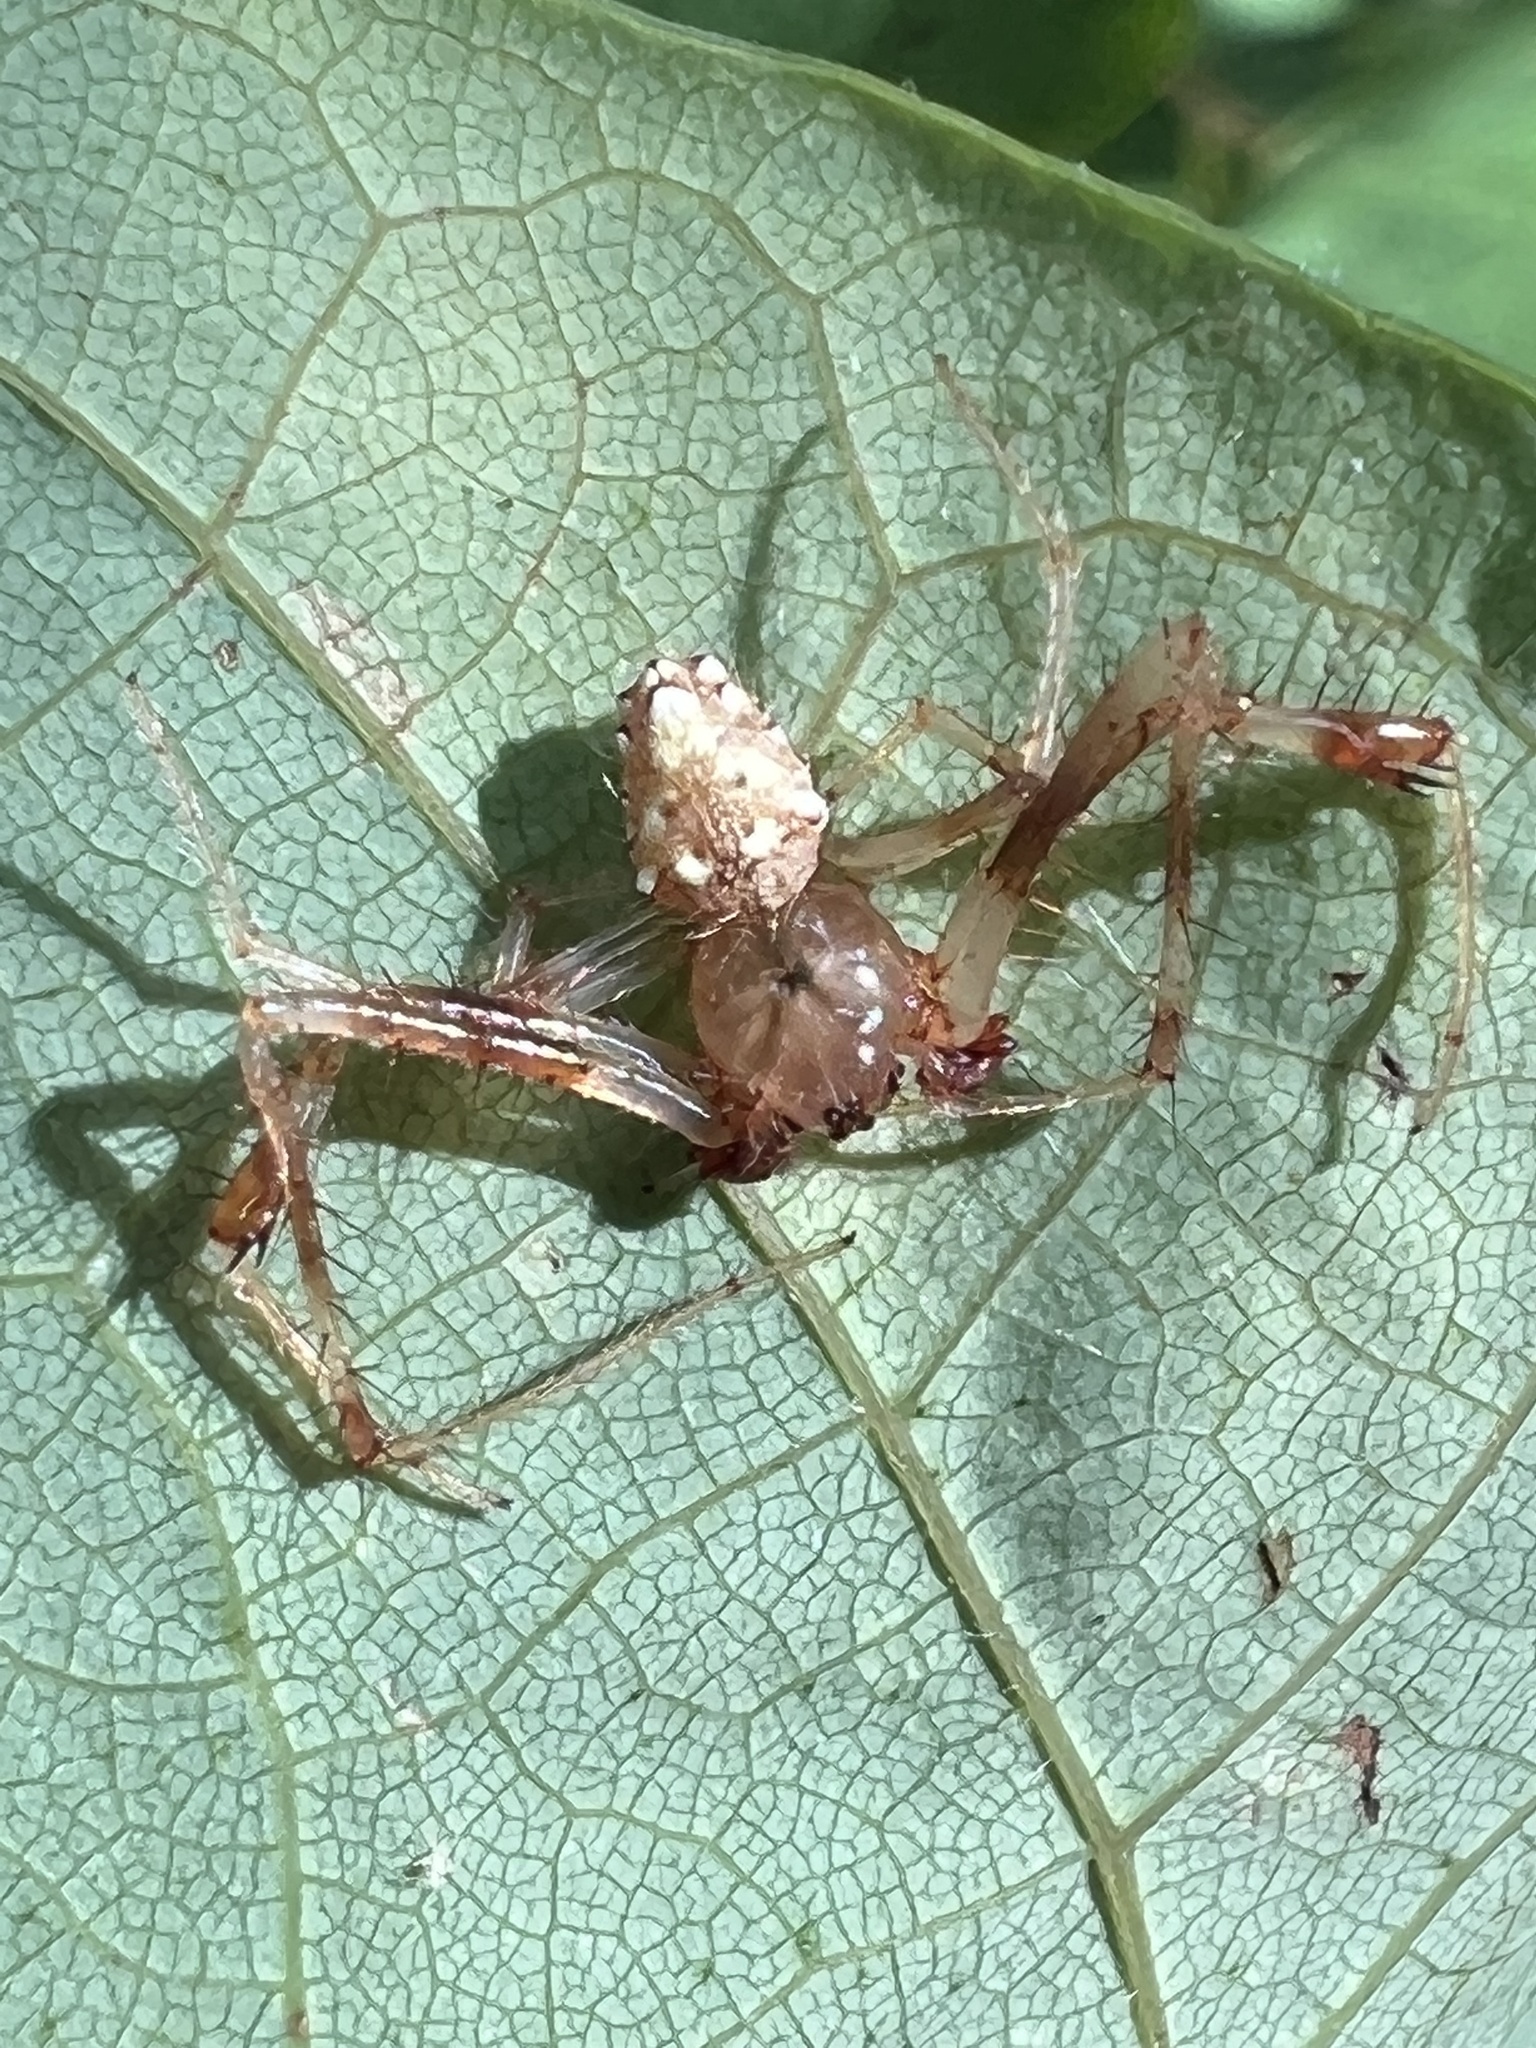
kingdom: Animalia
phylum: Arthropoda
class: Arachnida
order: Araneae
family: Araneidae
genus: Verrucosa
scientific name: Verrucosa arenata
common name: Orb weavers
